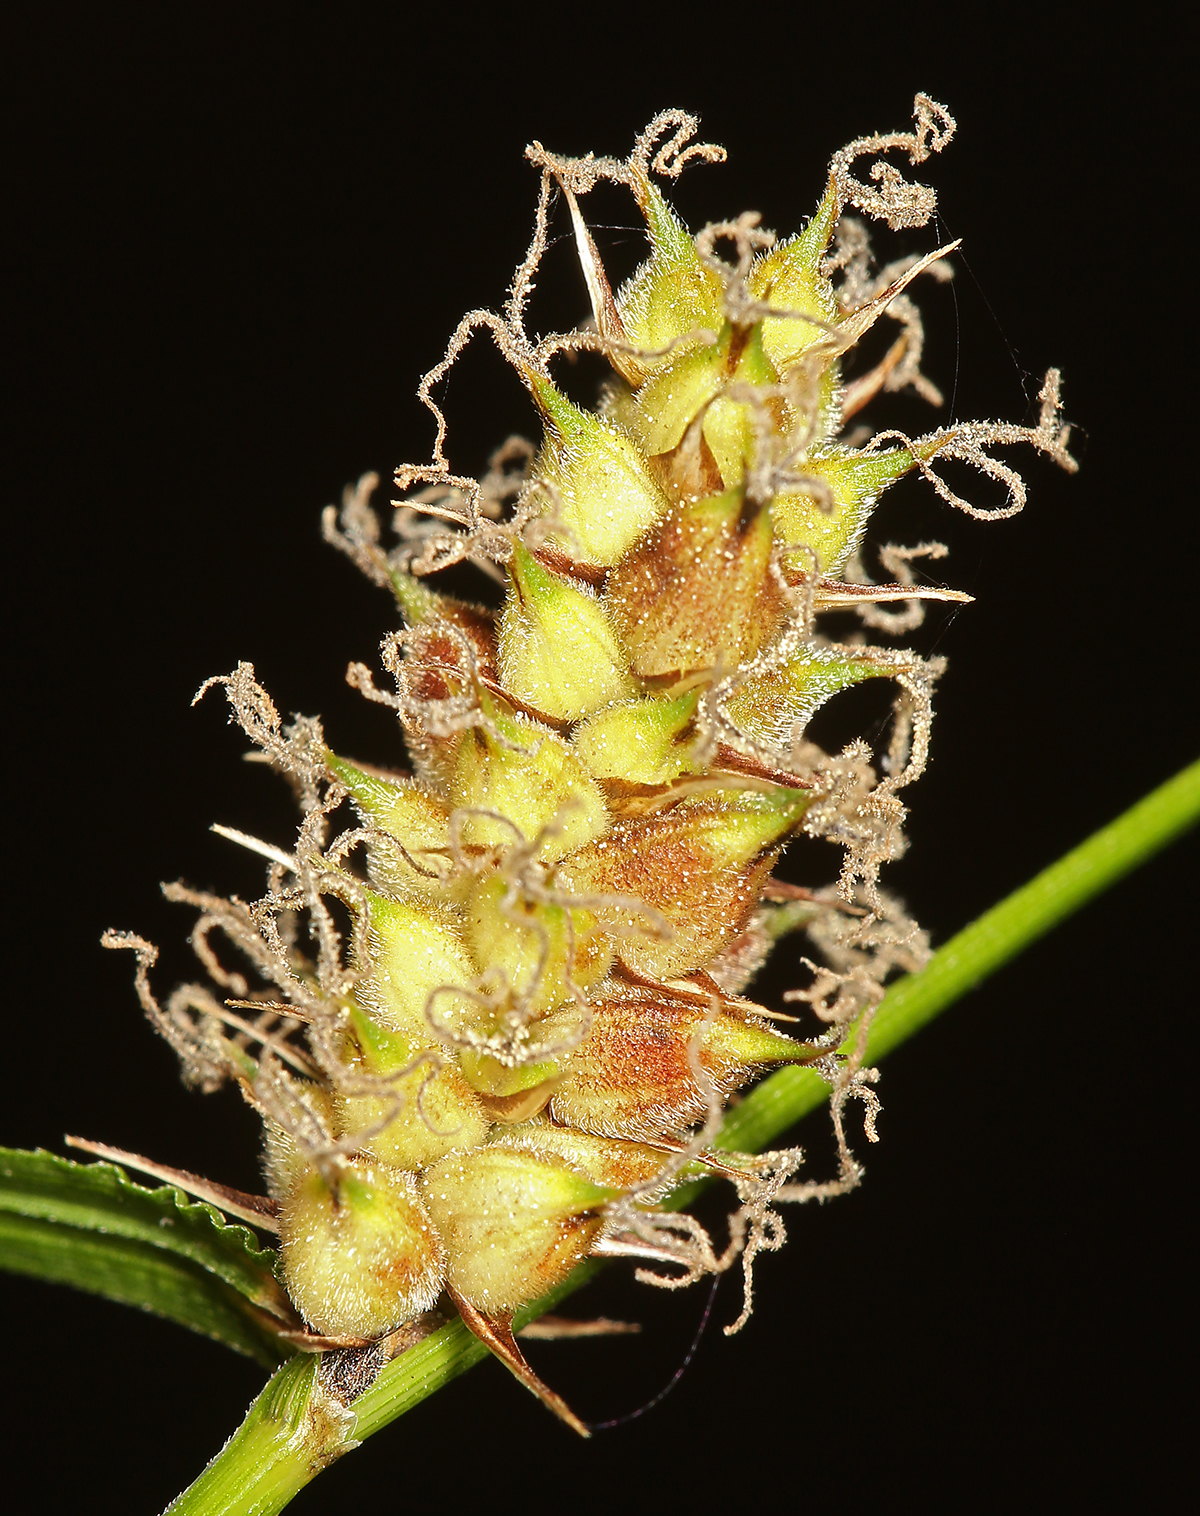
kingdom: Plantae
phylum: Tracheophyta
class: Liliopsida
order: Poales
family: Cyperaceae
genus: Carex
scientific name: Carex pellita
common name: Woolly sedge
